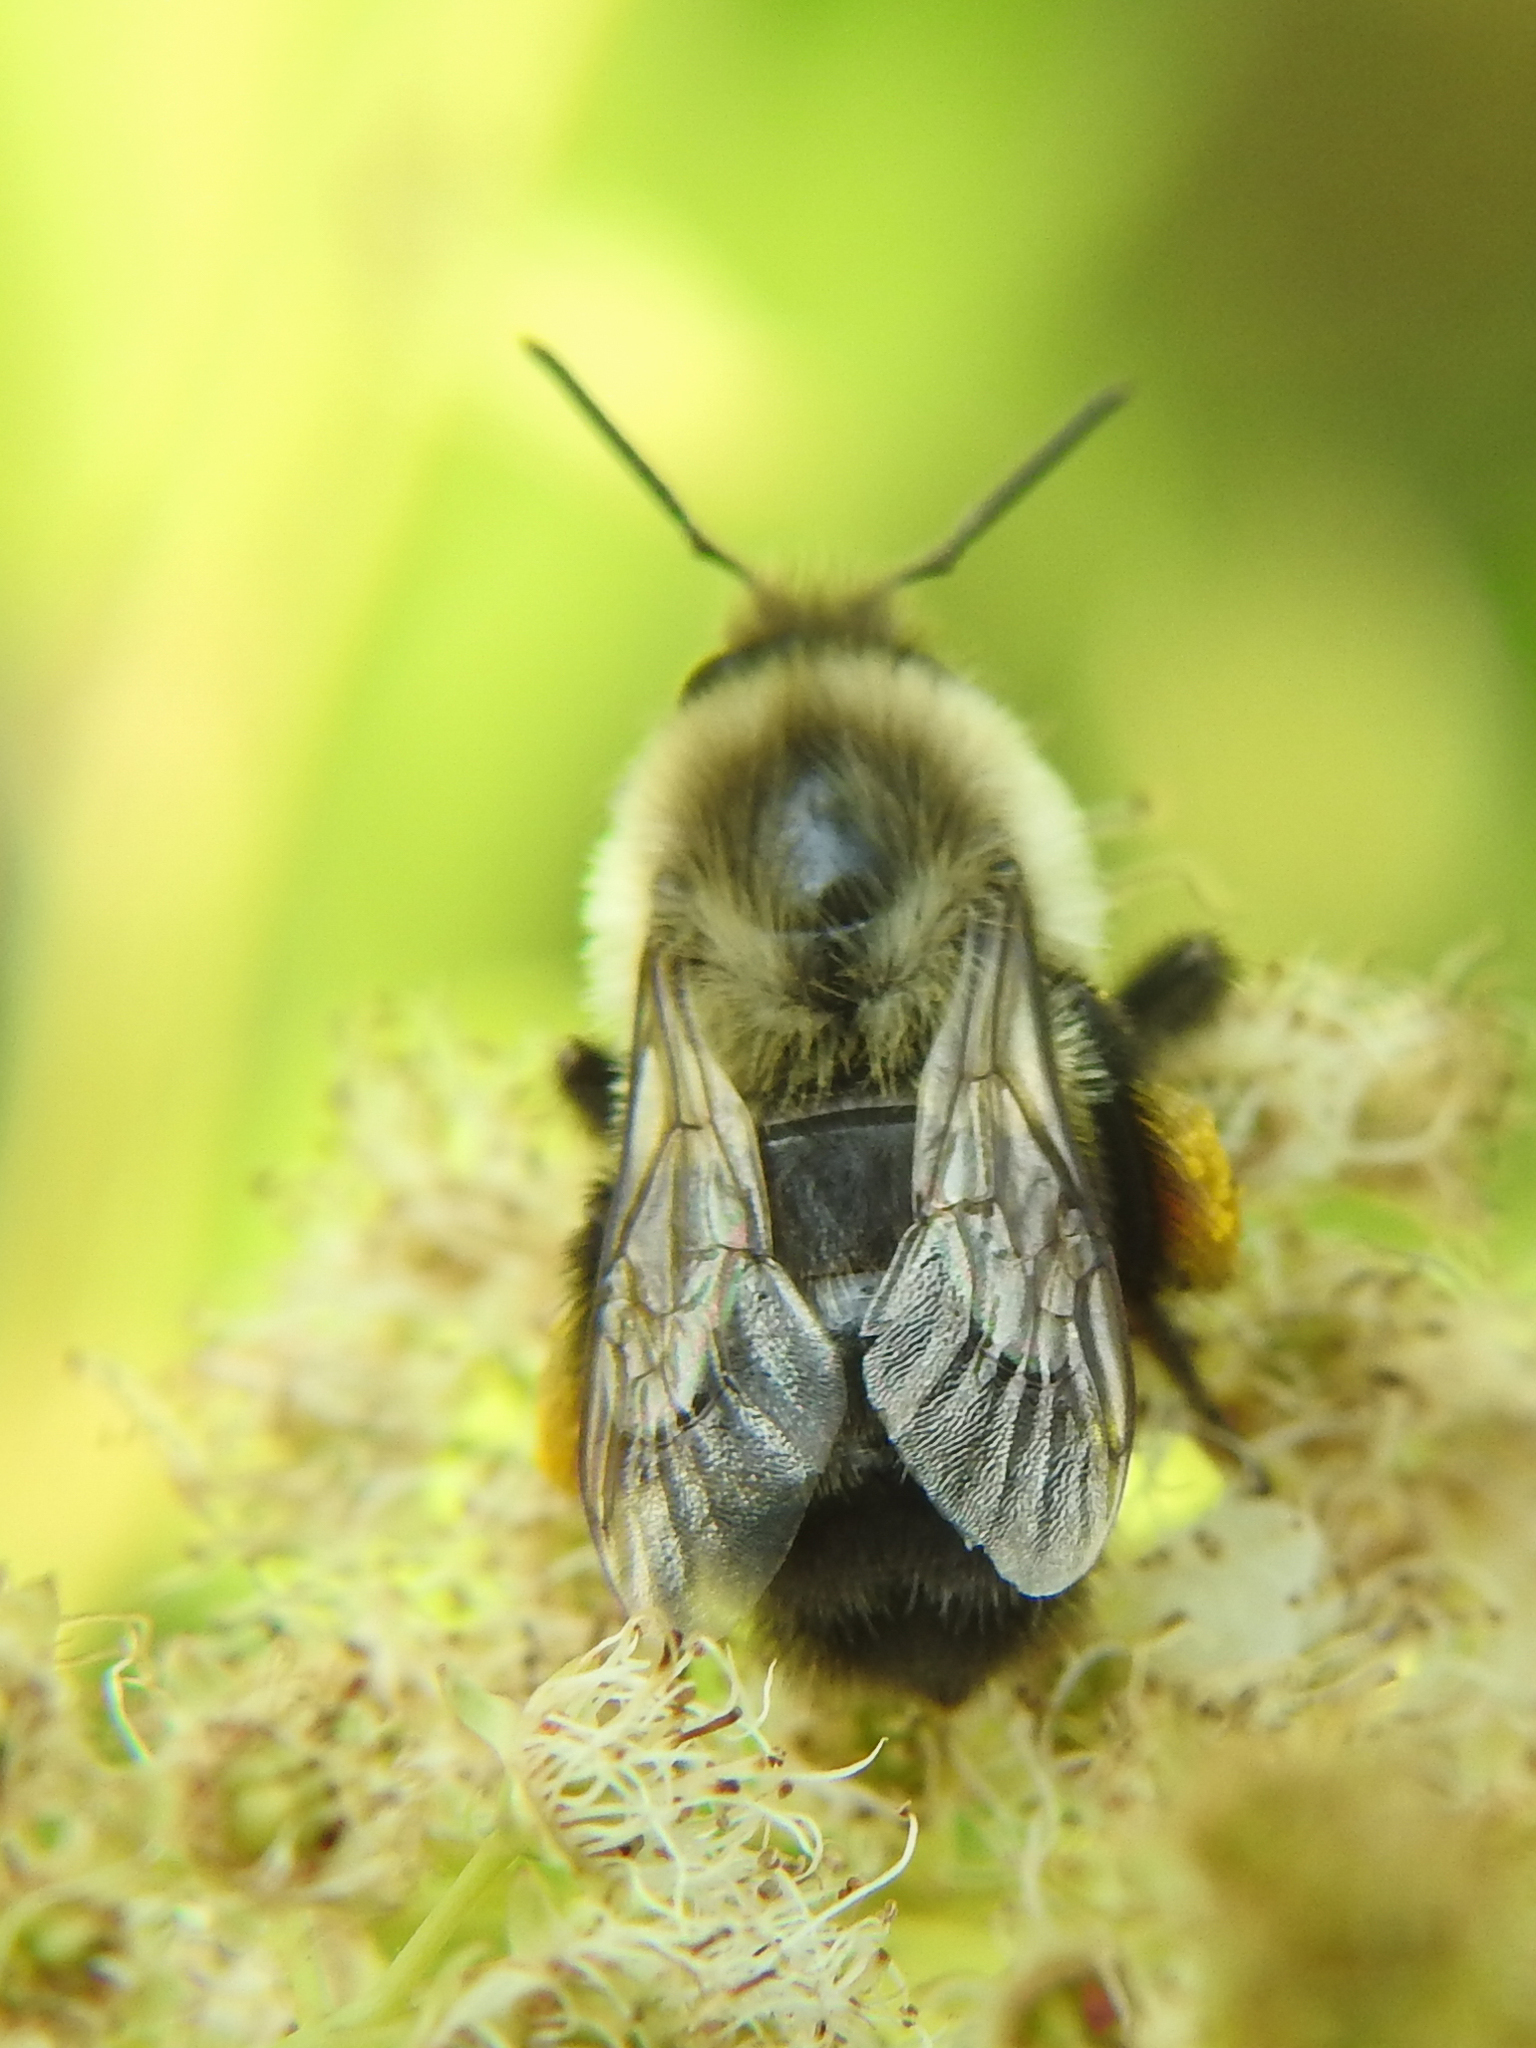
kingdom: Animalia
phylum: Arthropoda
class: Insecta
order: Hymenoptera
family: Apidae
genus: Bombus
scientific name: Bombus impatiens
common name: Common eastern bumble bee
